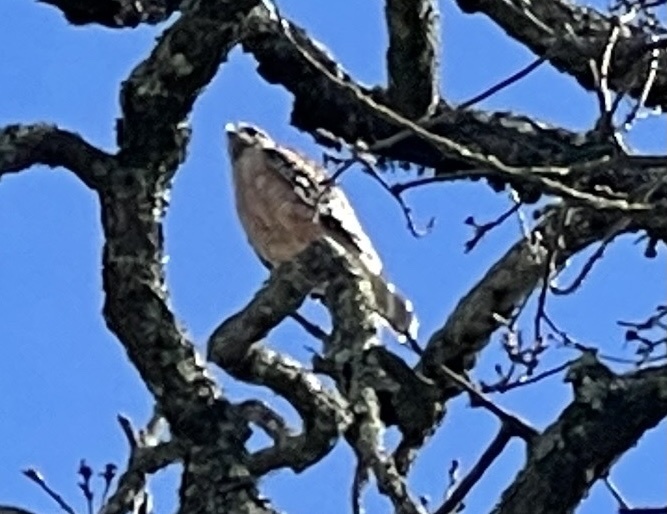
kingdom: Animalia
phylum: Chordata
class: Aves
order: Accipitriformes
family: Accipitridae
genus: Buteo
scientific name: Buteo lineatus
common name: Red-shouldered hawk
